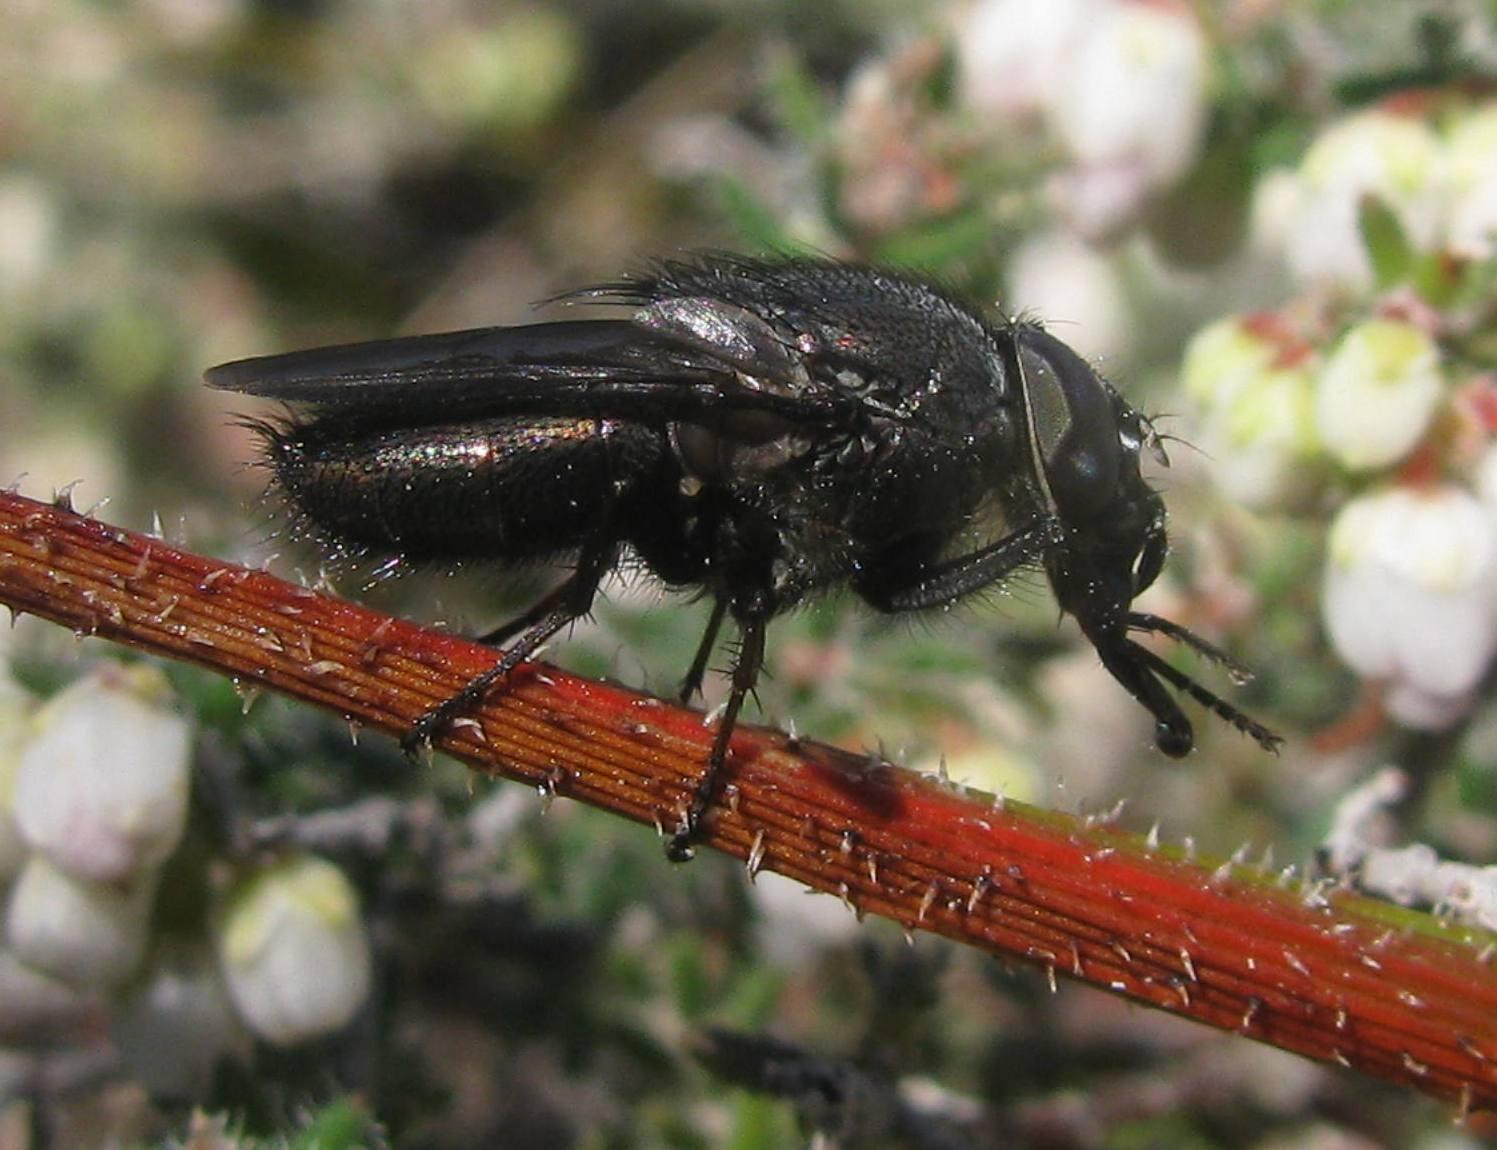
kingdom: Animalia
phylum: Arthropoda
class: Insecta
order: Diptera
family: Calliphoridae
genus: Cosmina
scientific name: Cosmina fuscipennis
